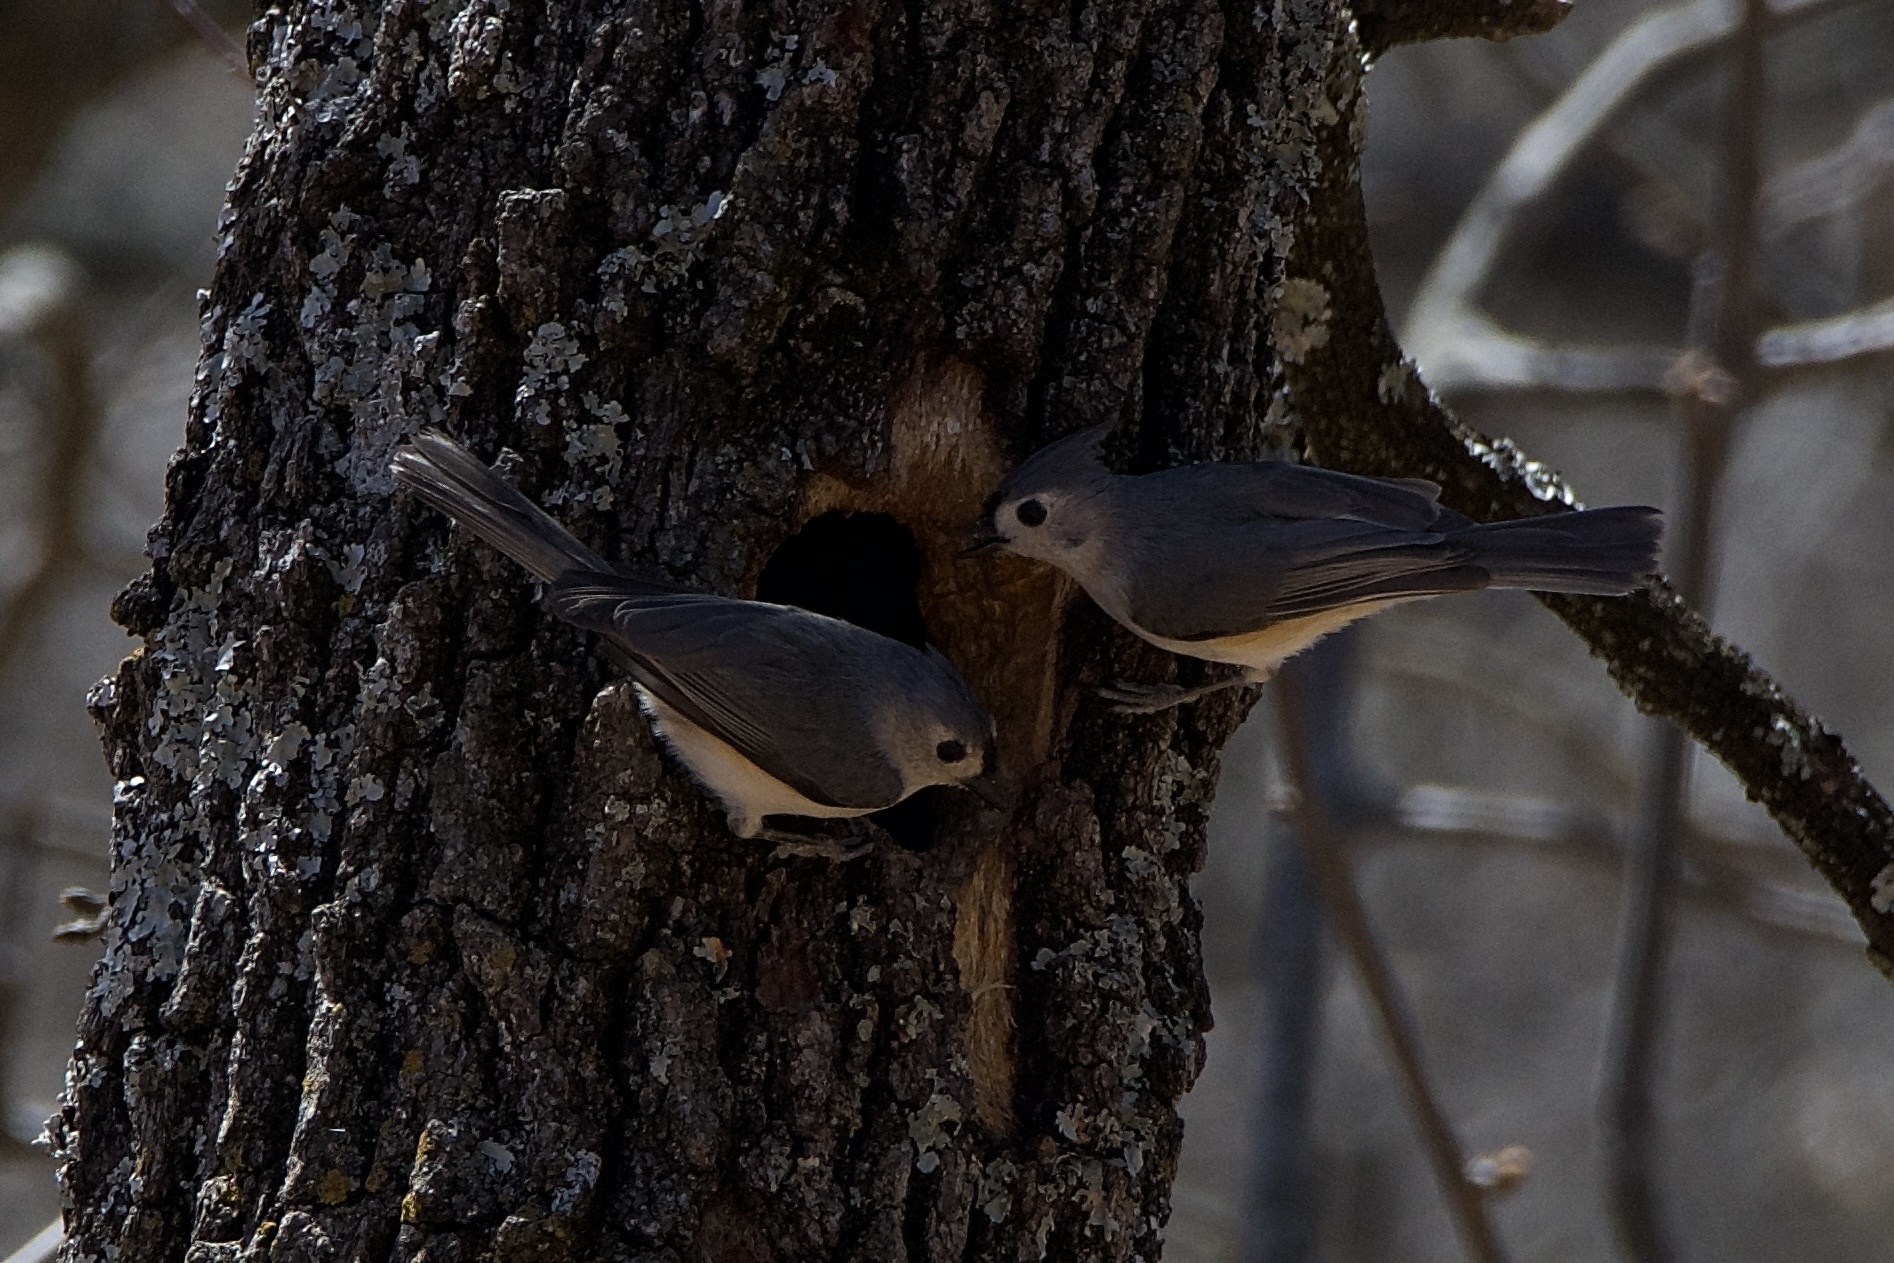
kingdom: Animalia
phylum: Chordata
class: Aves
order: Passeriformes
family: Paridae
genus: Baeolophus
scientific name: Baeolophus bicolor
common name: Tufted titmouse
